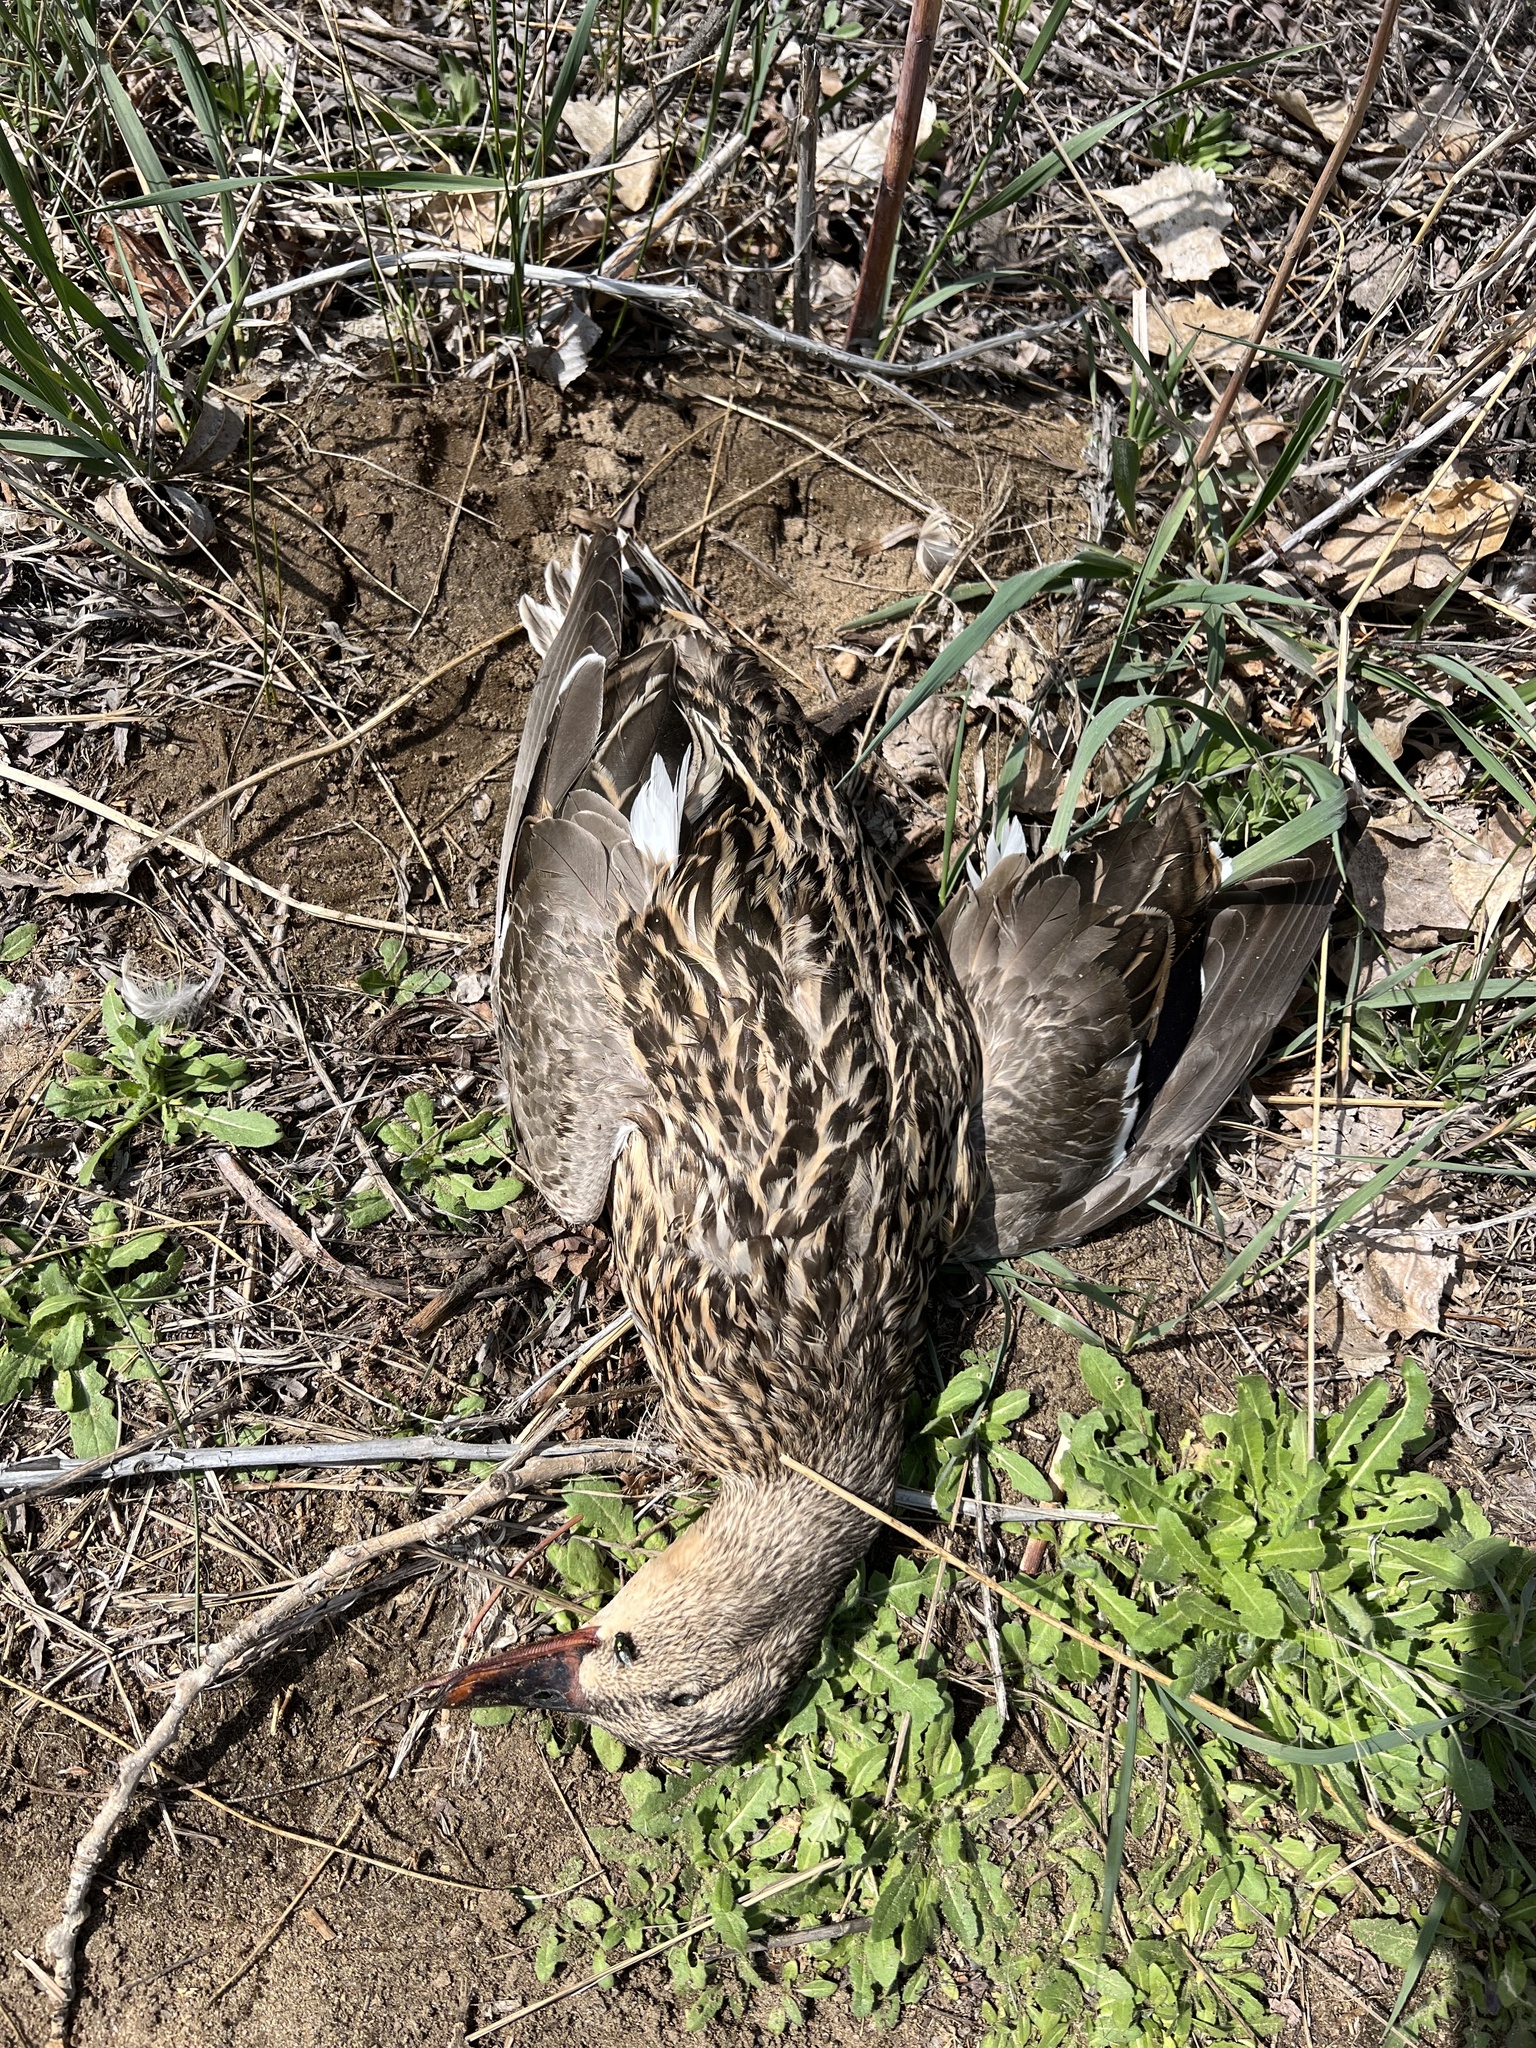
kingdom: Animalia
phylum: Chordata
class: Aves
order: Anseriformes
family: Anatidae
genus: Anas
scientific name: Anas platyrhynchos
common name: Mallard
